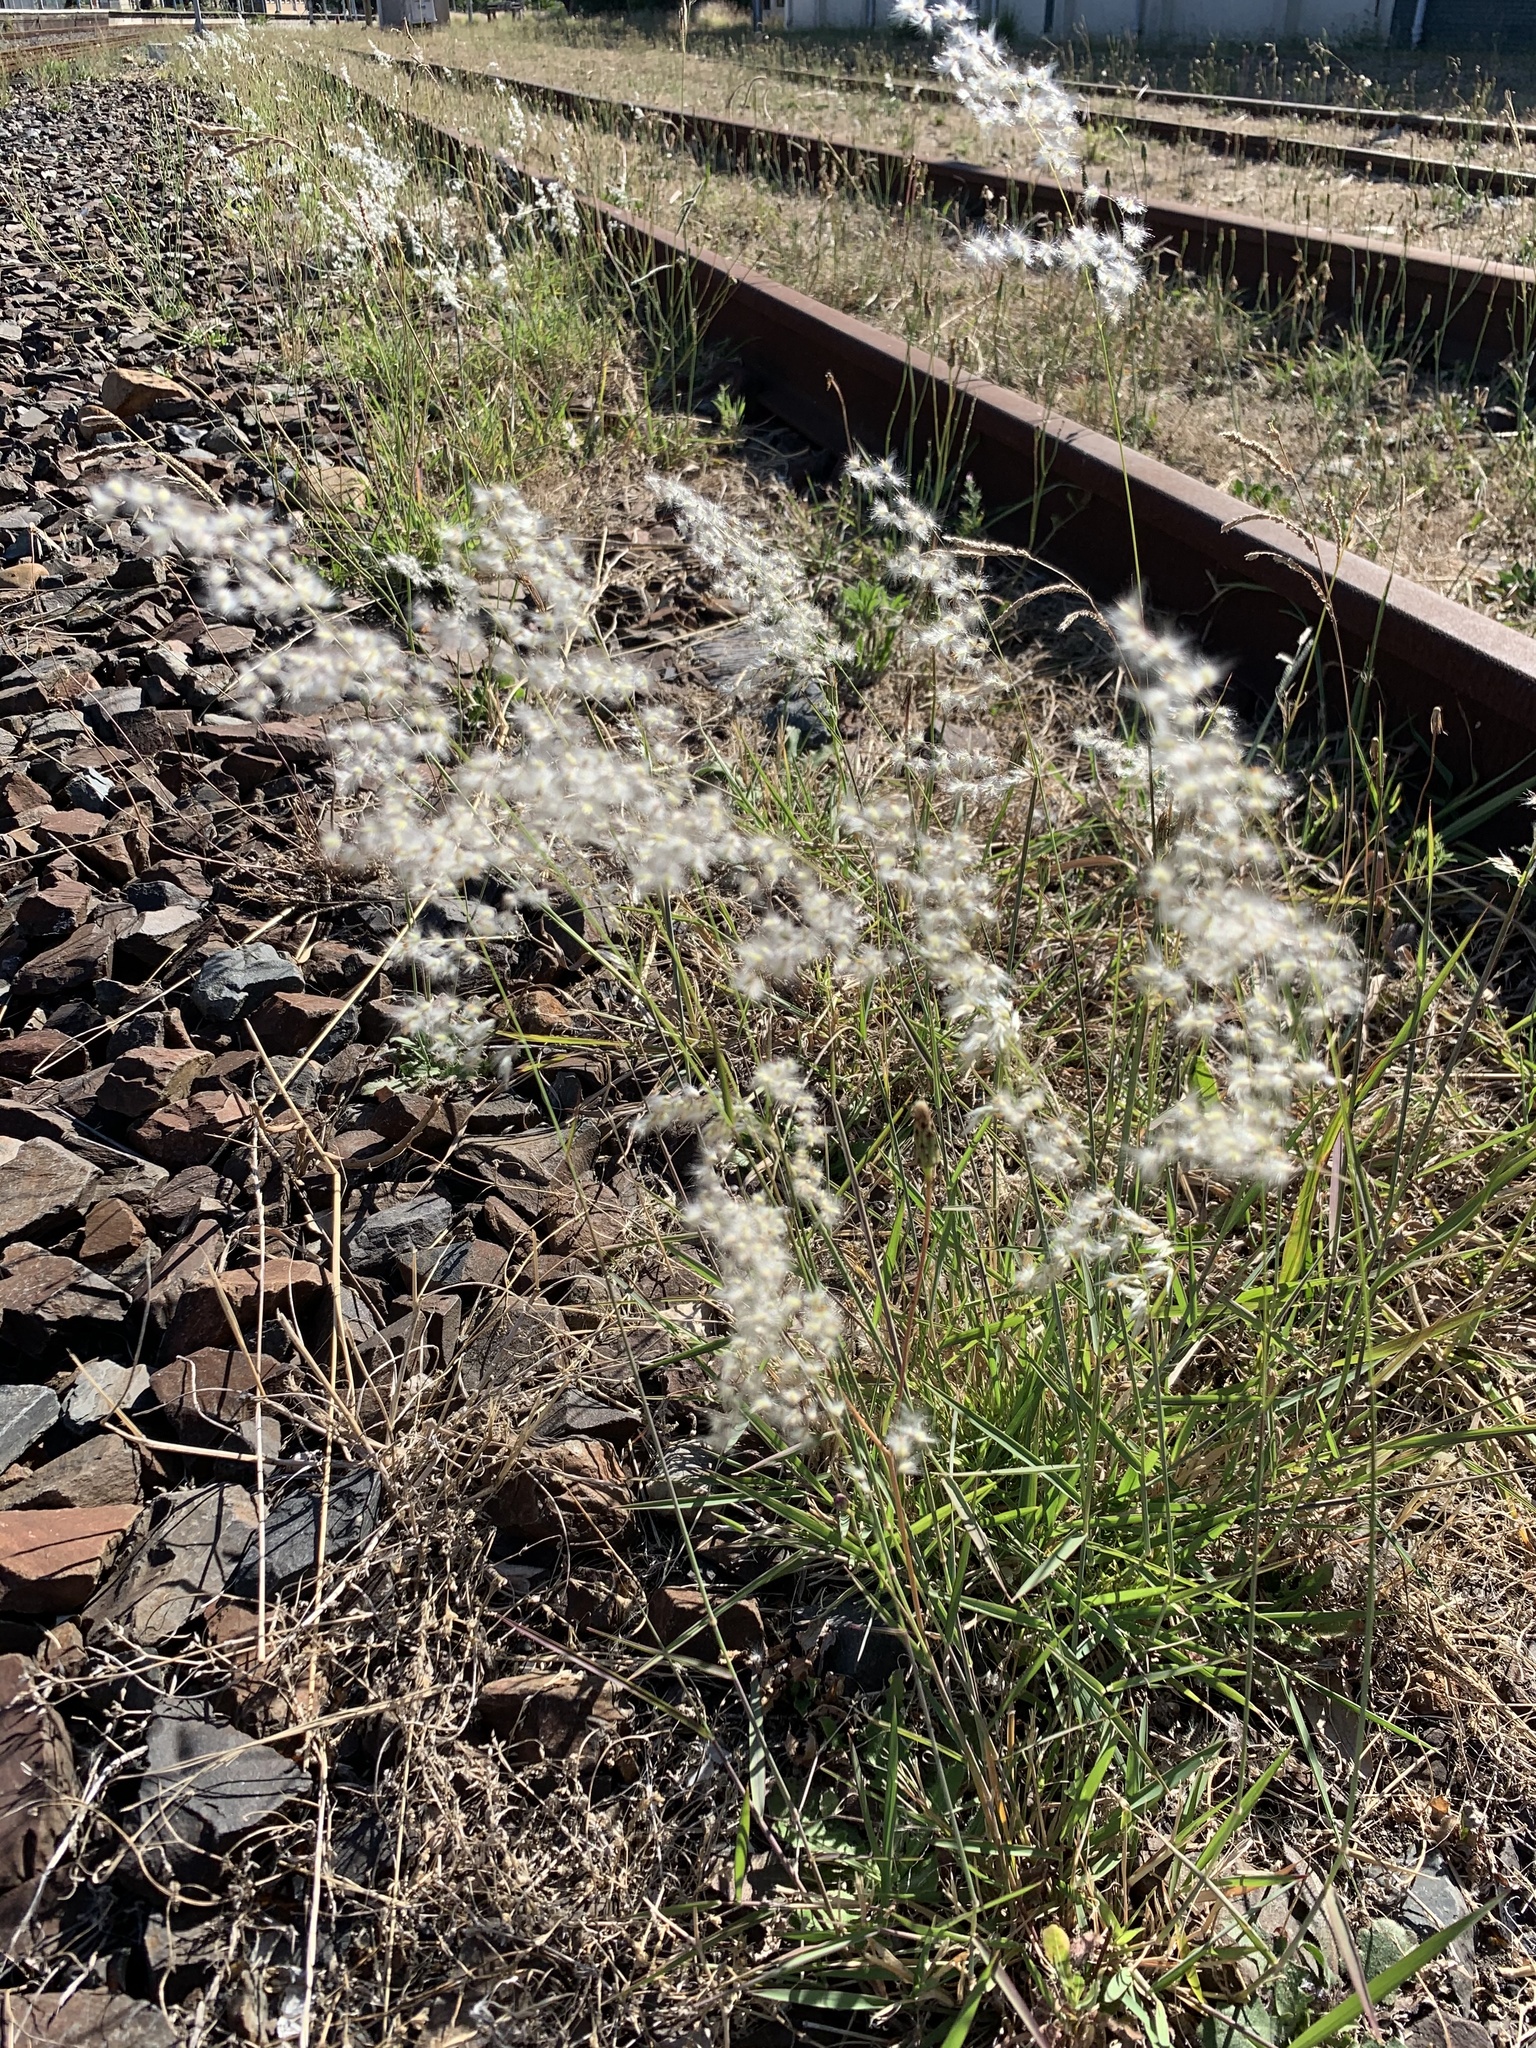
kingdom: Plantae
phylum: Tracheophyta
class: Liliopsida
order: Poales
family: Poaceae
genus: Melinis
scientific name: Melinis repens
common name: Rose natal grass
